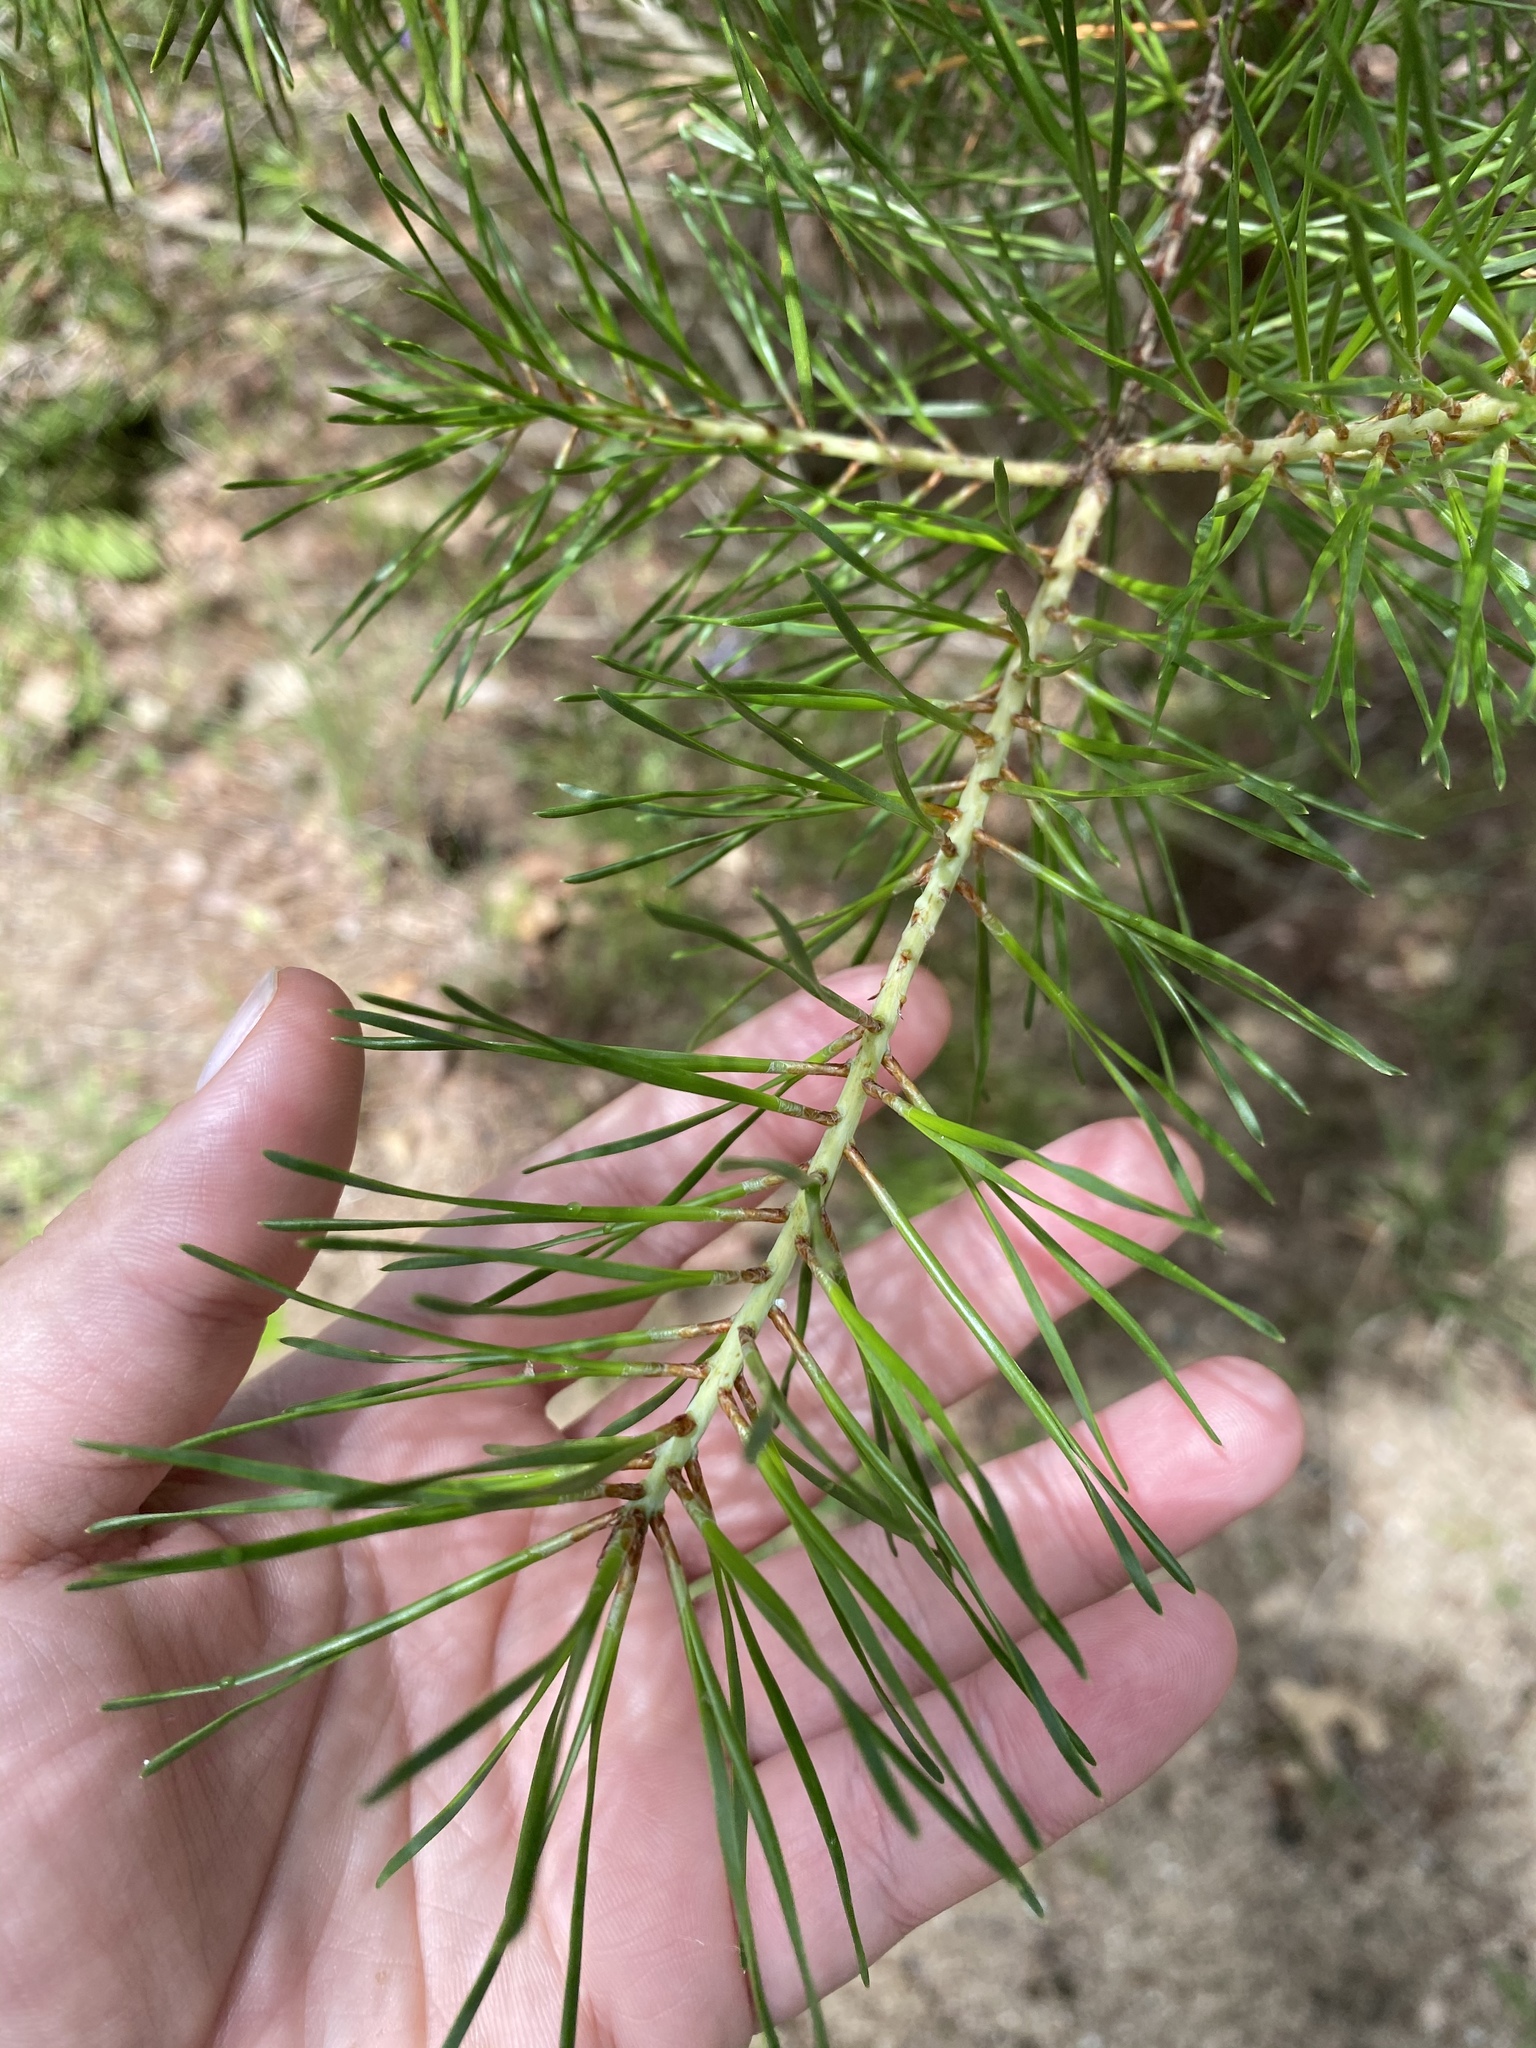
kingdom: Plantae
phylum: Tracheophyta
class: Pinopsida
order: Pinales
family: Pinaceae
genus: Pinus
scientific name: Pinus echinata
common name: Shortleaf pine
